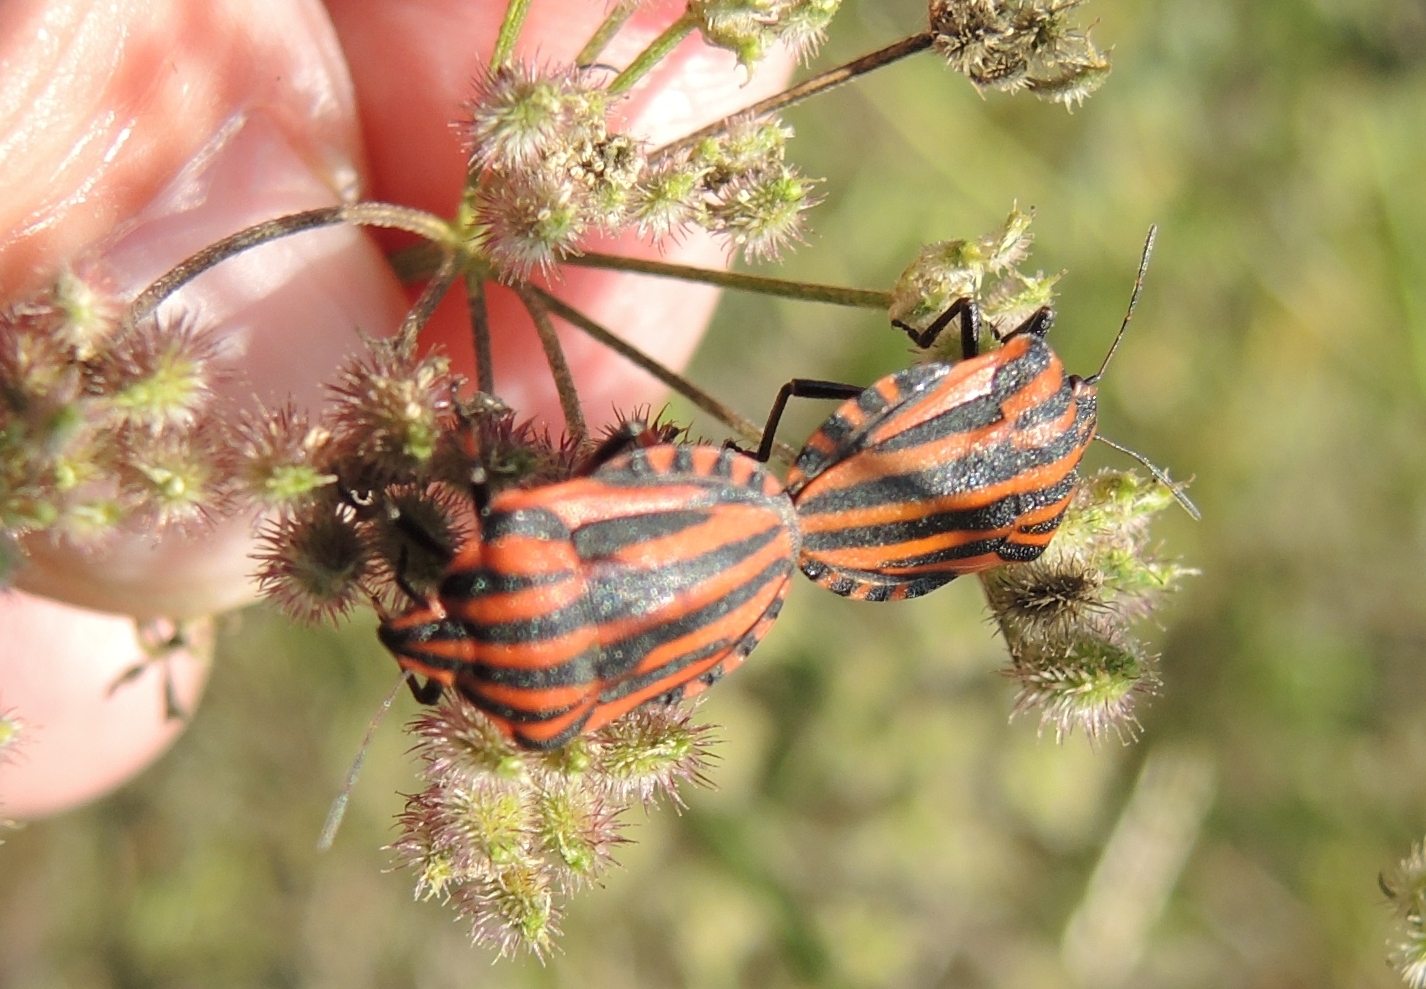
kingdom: Animalia
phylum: Arthropoda
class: Insecta
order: Hemiptera
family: Pentatomidae
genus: Graphosoma
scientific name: Graphosoma italicum
